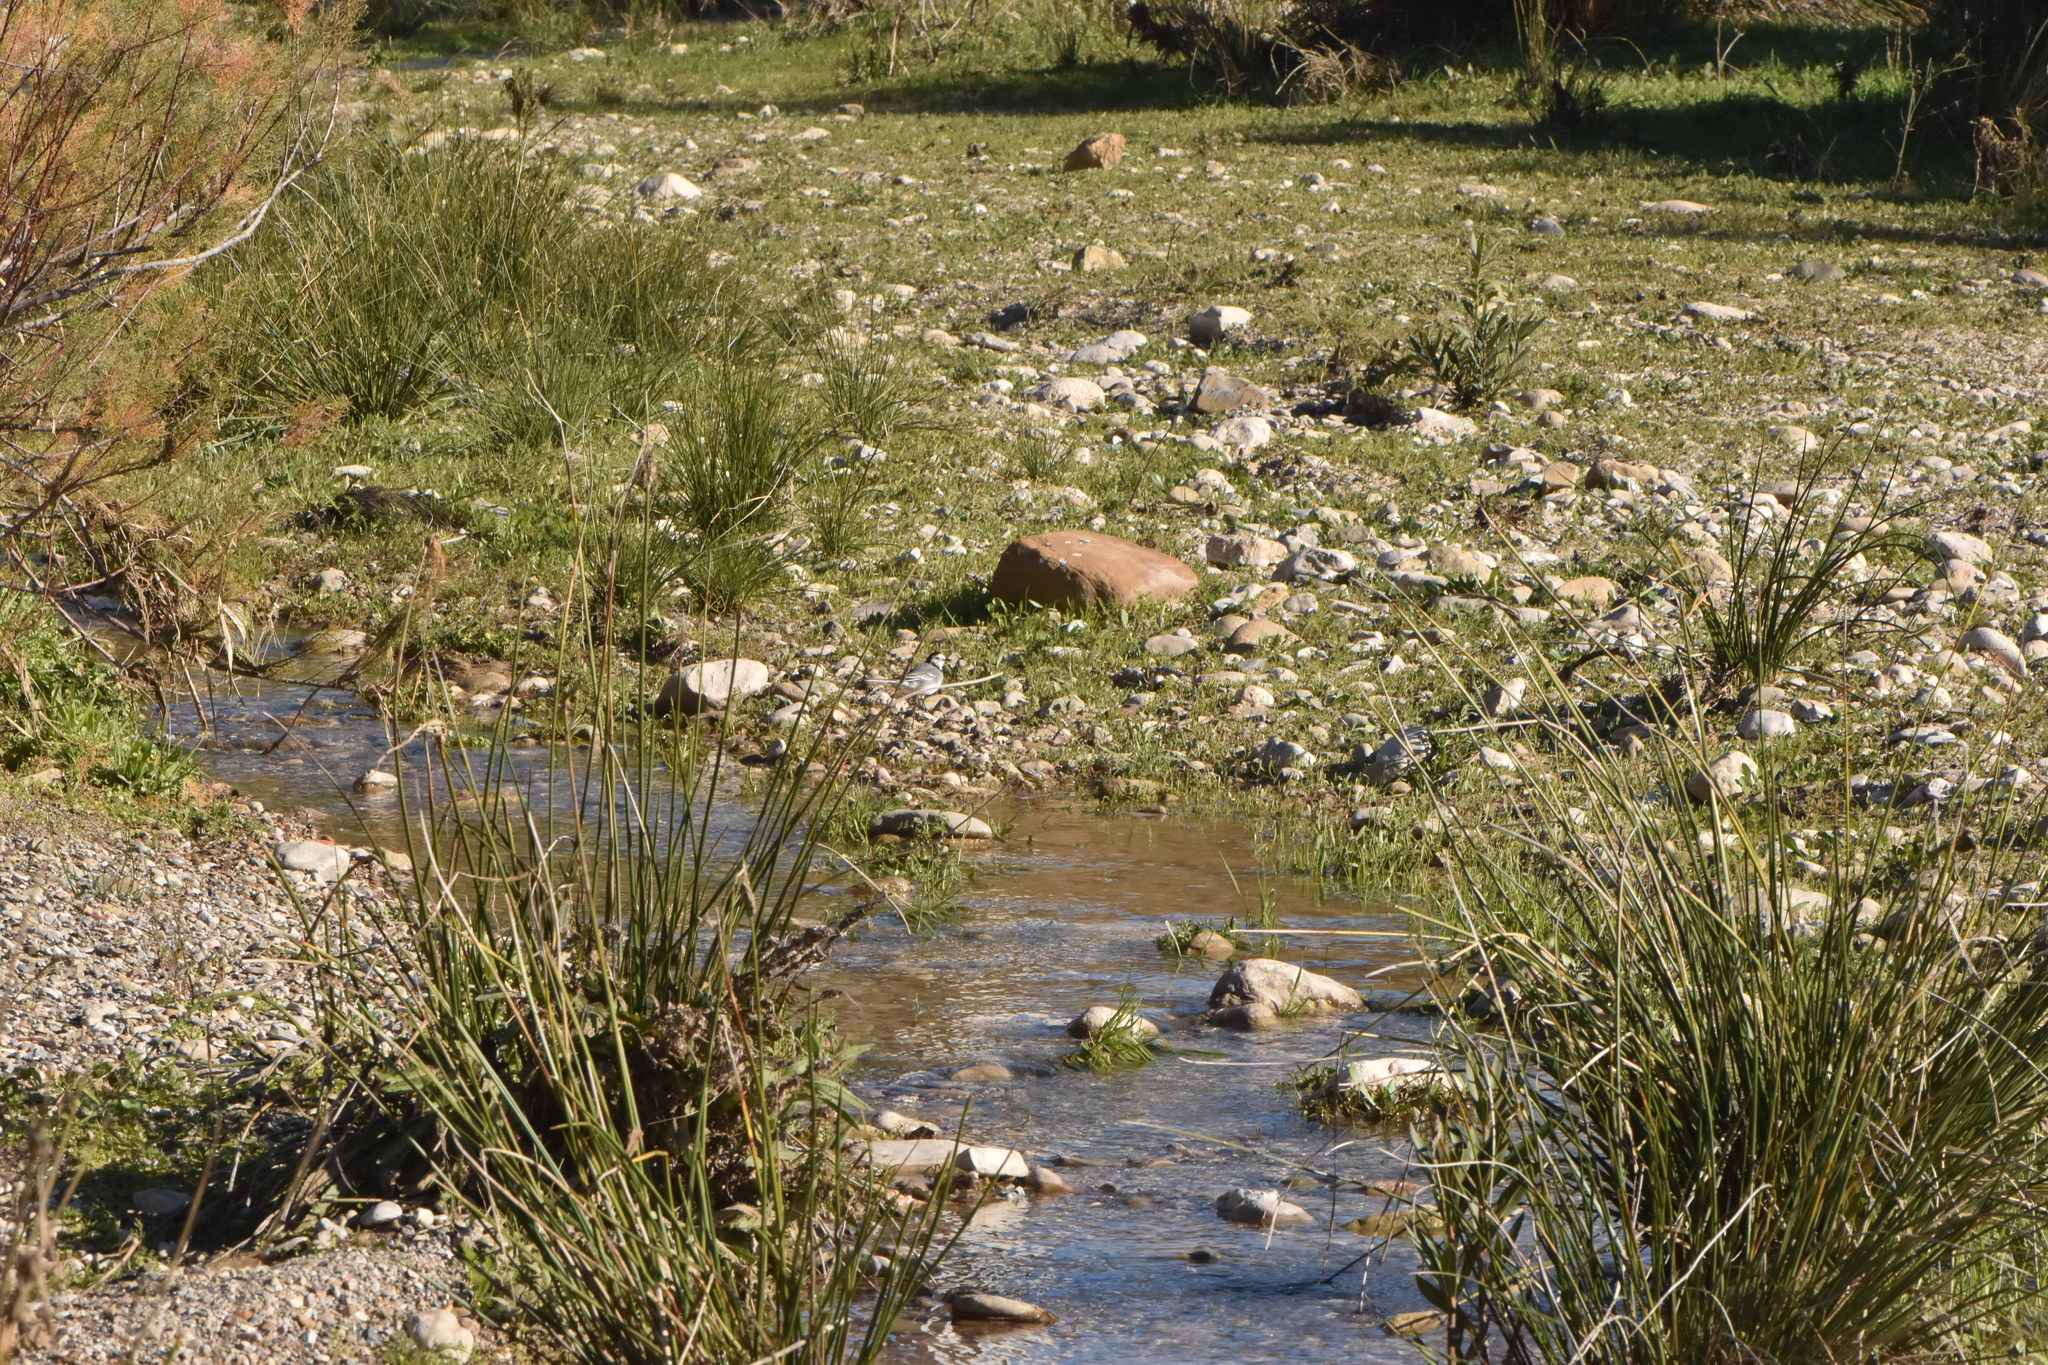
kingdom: Animalia
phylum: Chordata
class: Aves
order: Passeriformes
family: Motacillidae
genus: Motacilla
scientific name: Motacilla alba
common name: White wagtail
